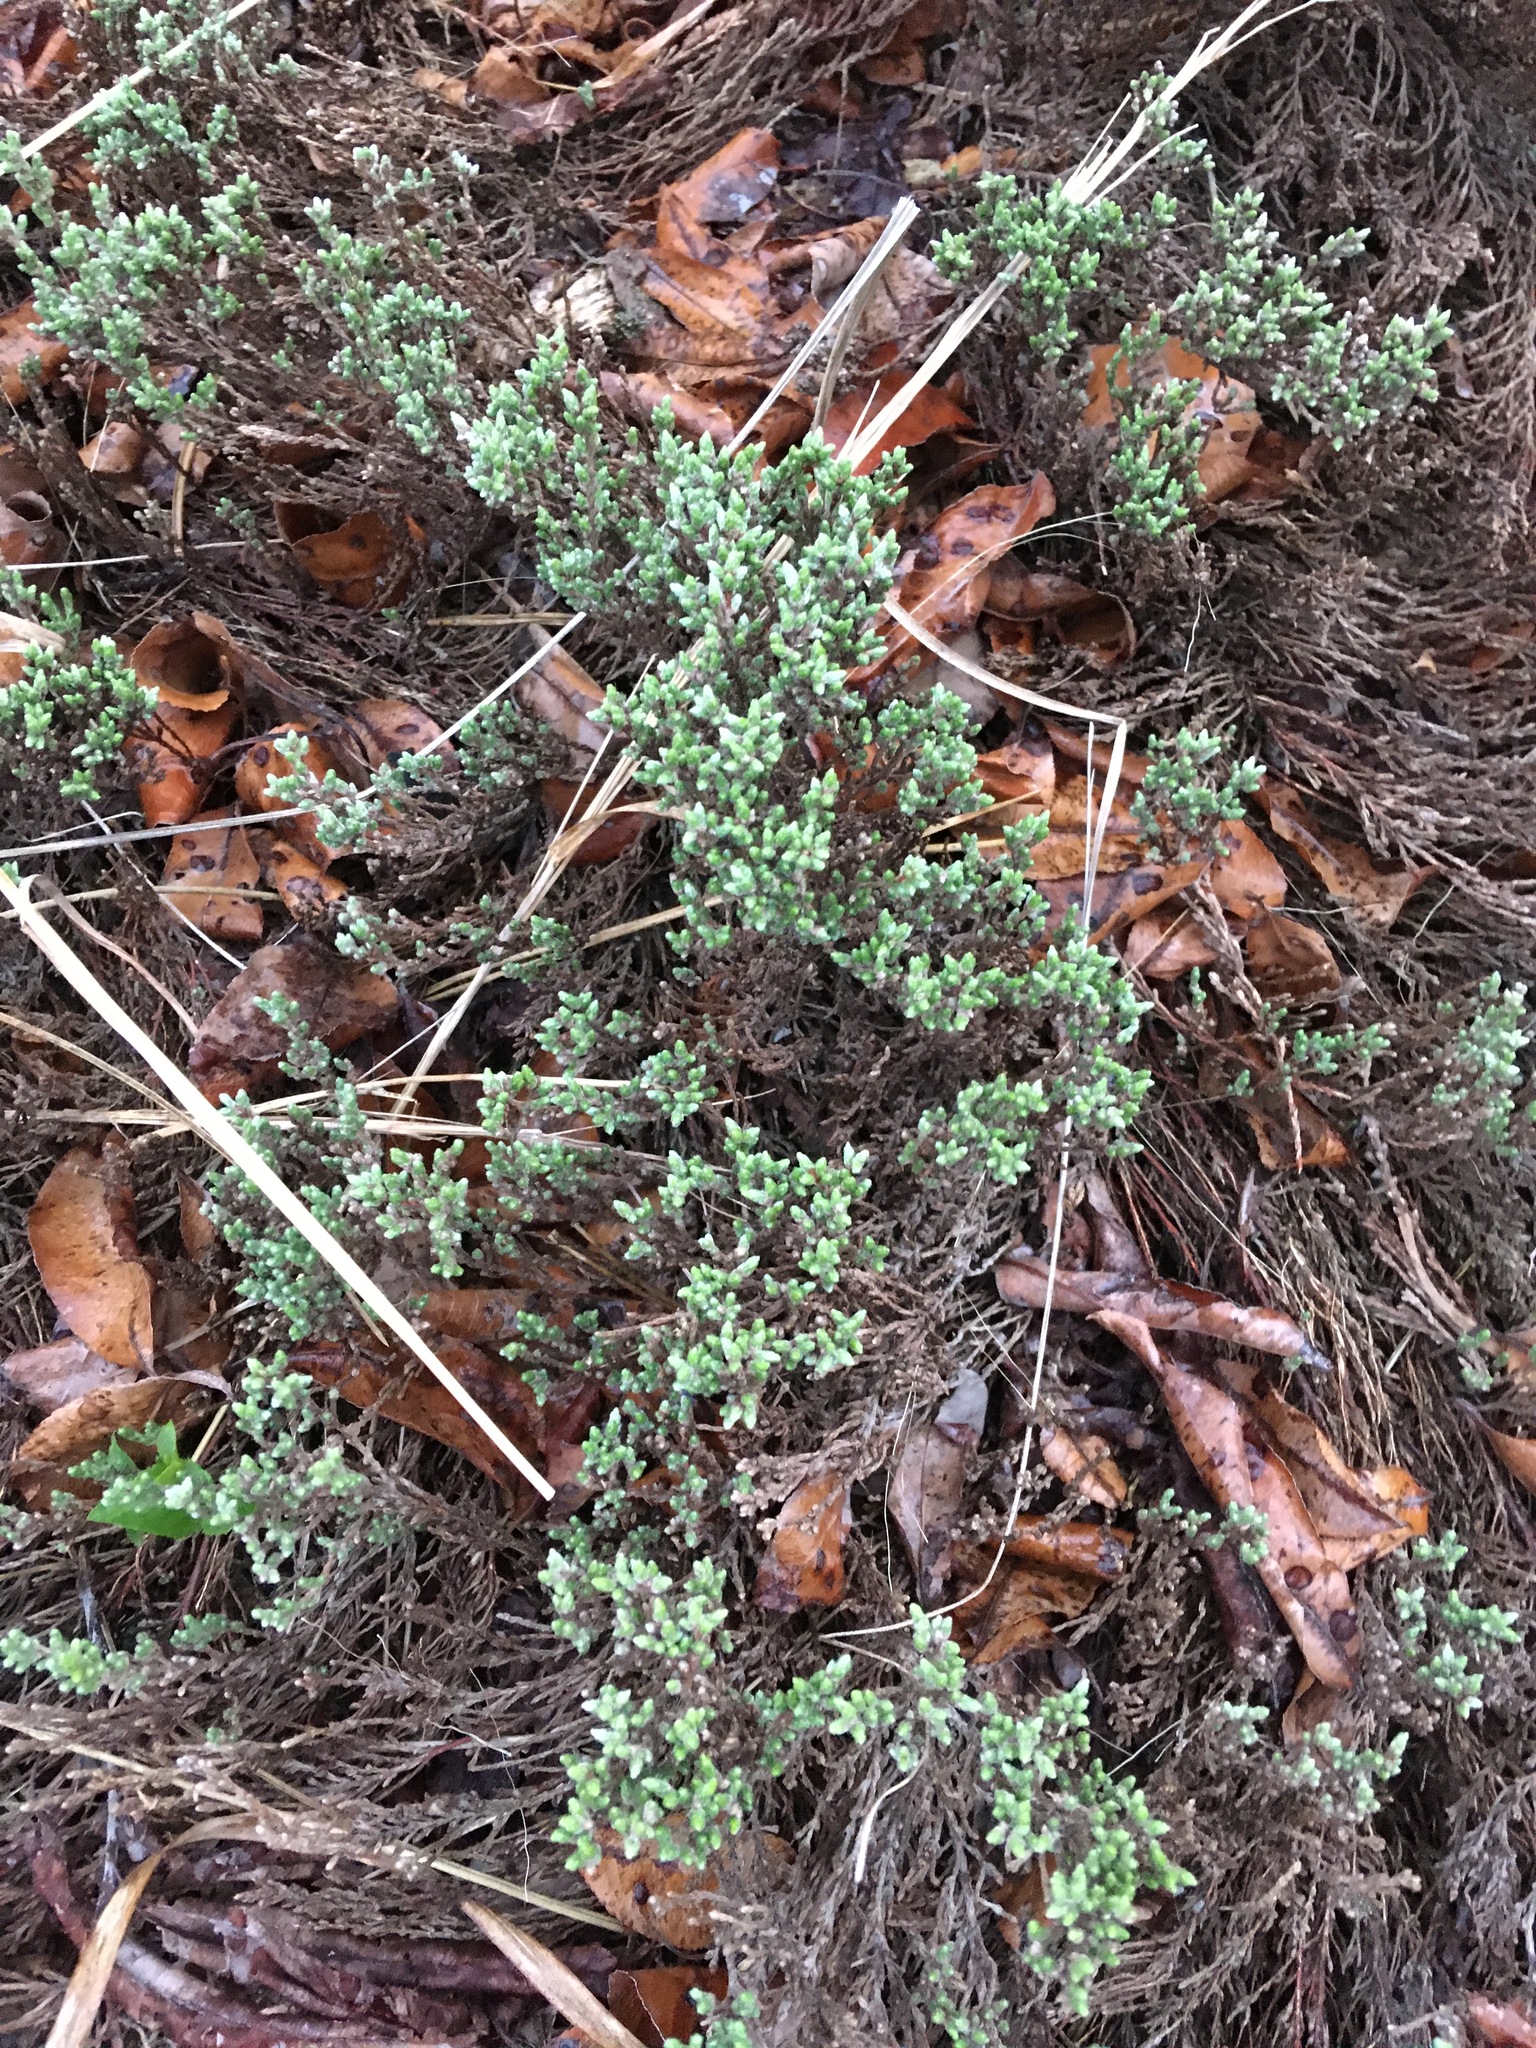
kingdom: Plantae
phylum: Tracheophyta
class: Magnoliopsida
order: Malvales
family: Cistaceae
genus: Hudsonia
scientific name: Hudsonia tomentosa
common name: Beach-heath
